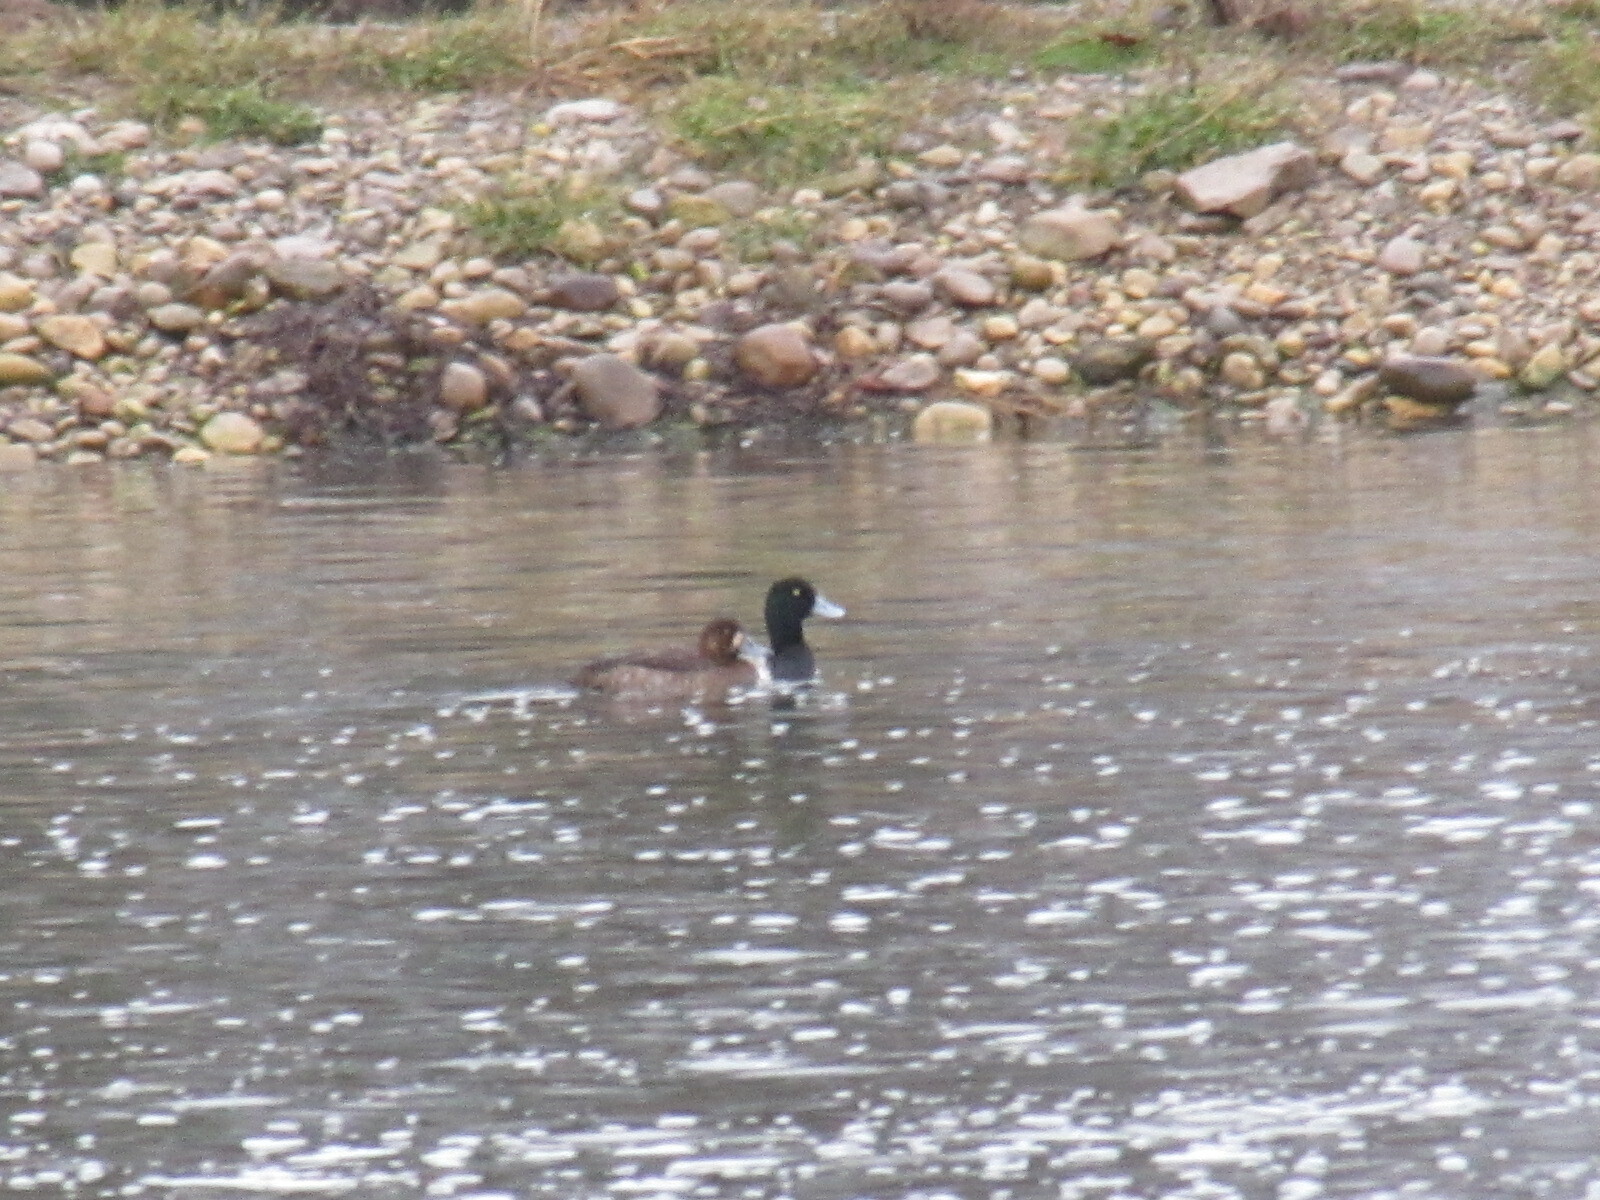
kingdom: Animalia
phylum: Chordata
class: Aves
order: Anseriformes
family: Anatidae
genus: Aythya
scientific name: Aythya marila
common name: Greater scaup
